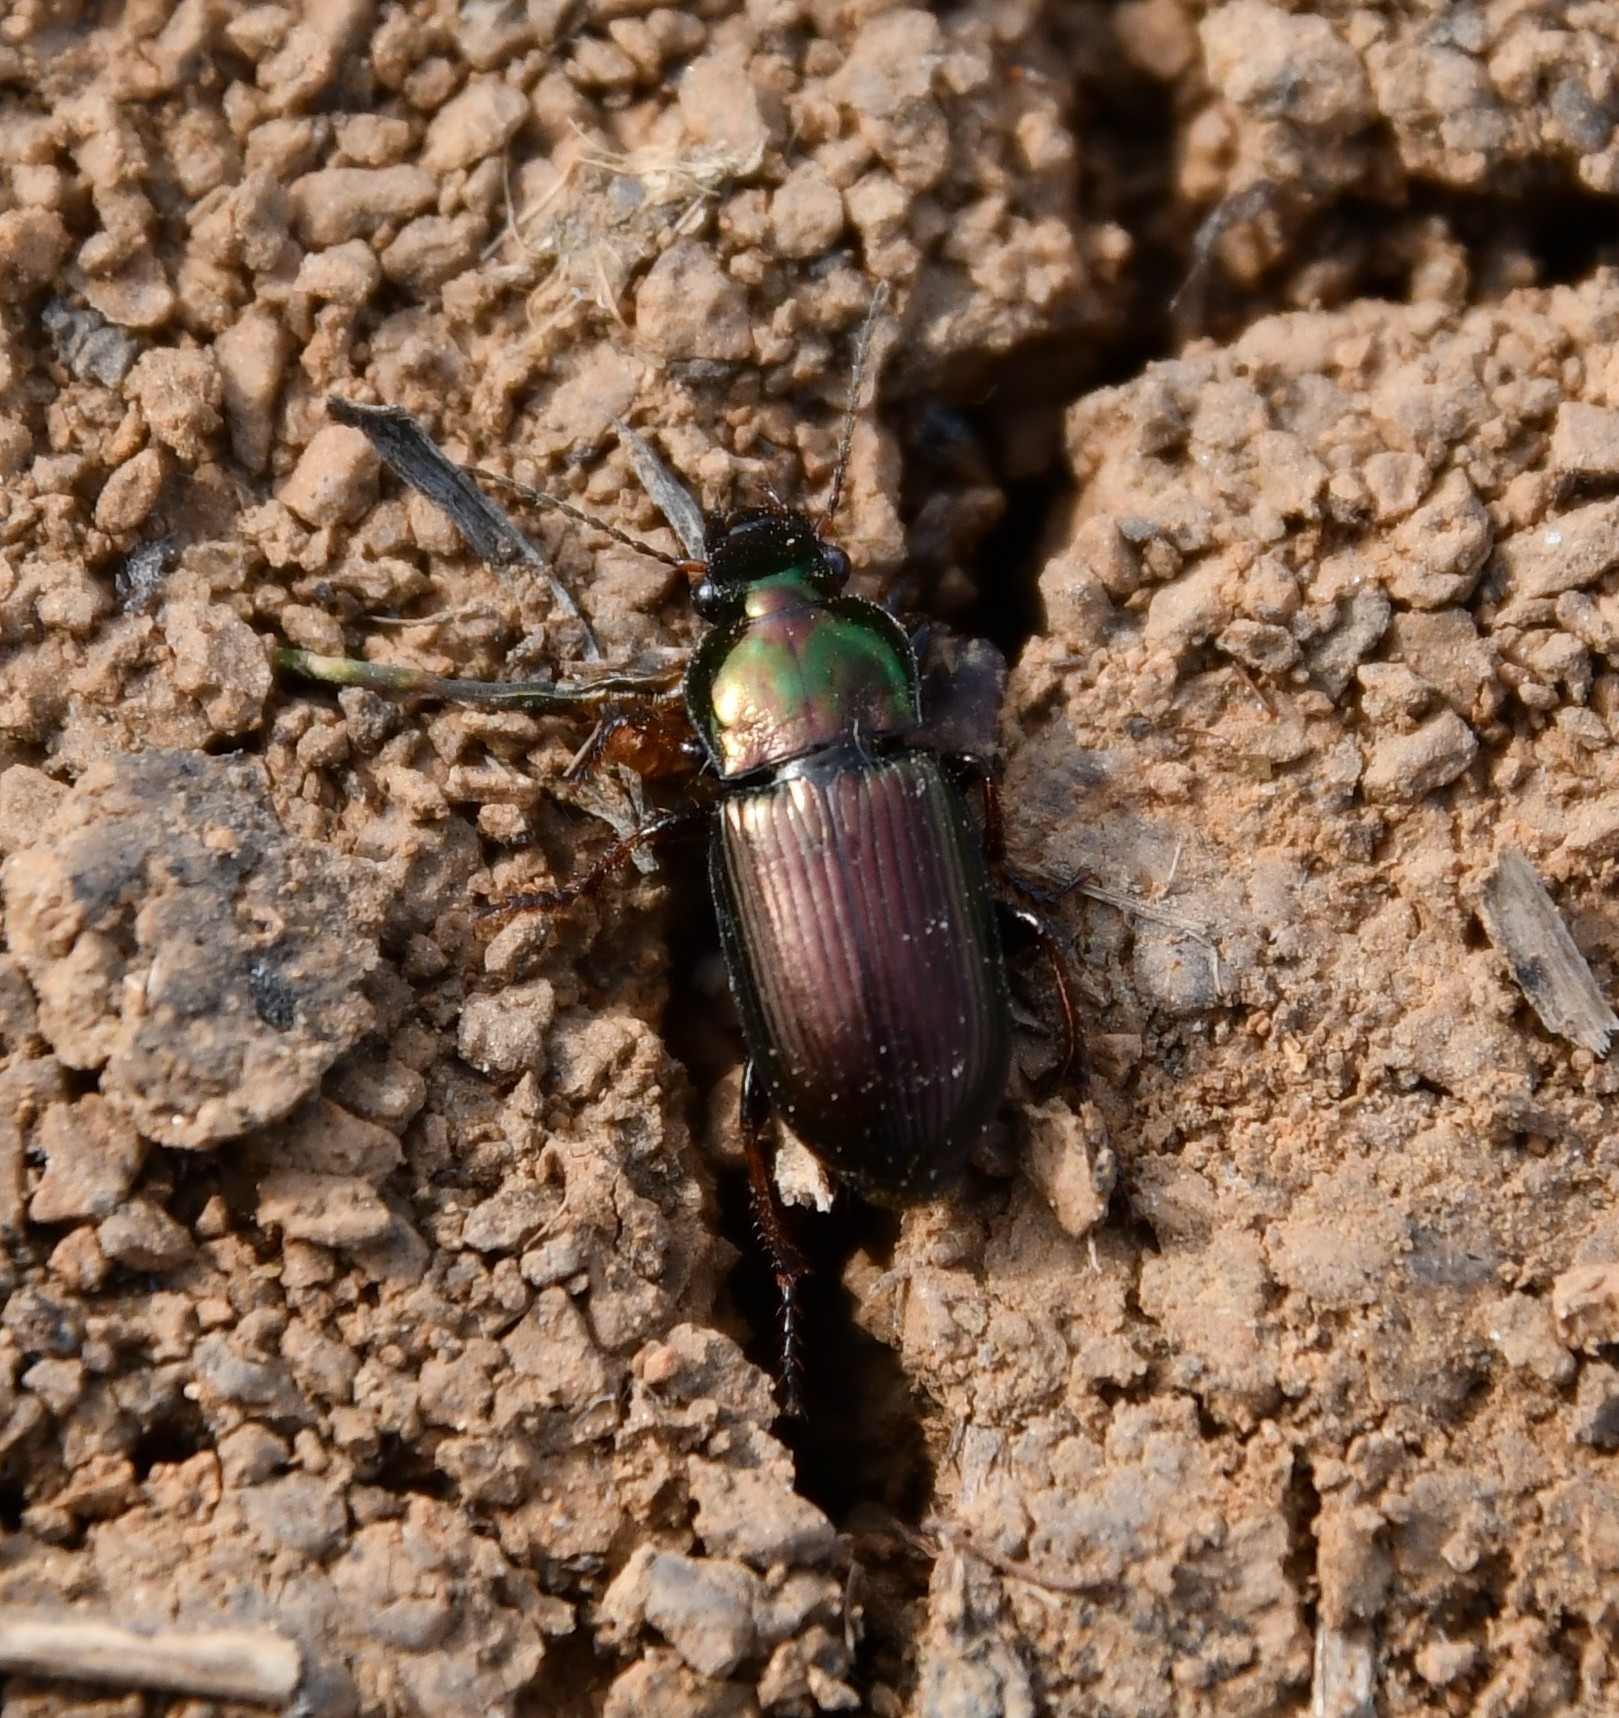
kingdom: Animalia
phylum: Arthropoda
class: Insecta
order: Coleoptera
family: Carabidae
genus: Harpalus
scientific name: Harpalus distinguendus
